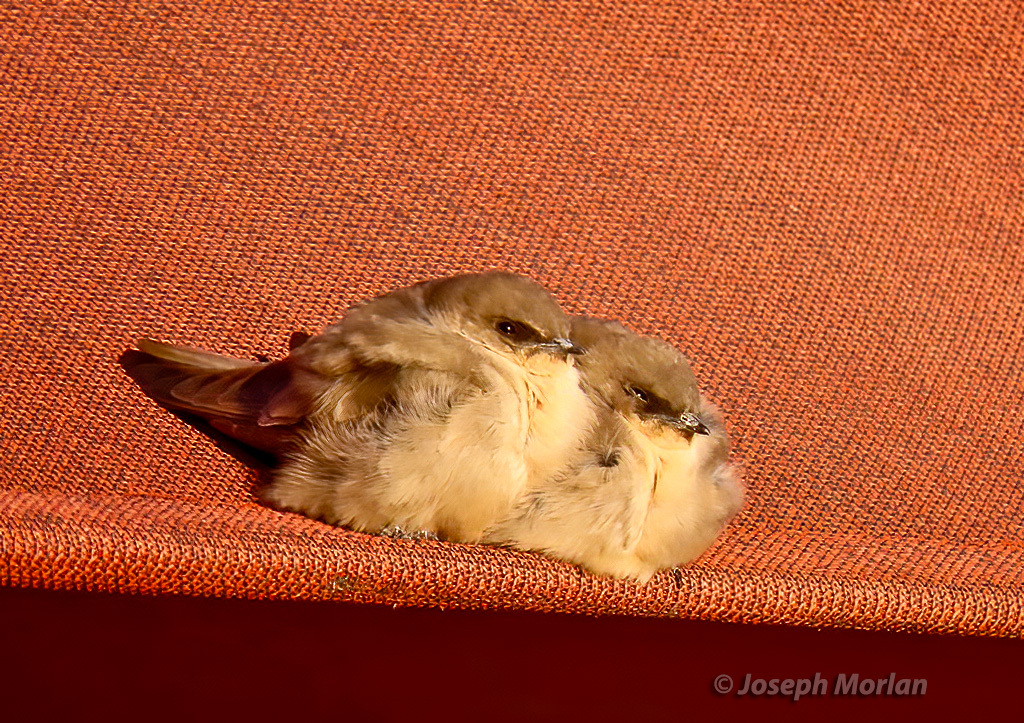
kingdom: Animalia
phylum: Chordata
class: Aves
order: Passeriformes
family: Hirundinidae
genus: Ptyonoprogne
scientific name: Ptyonoprogne fuligula
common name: Rock martin
